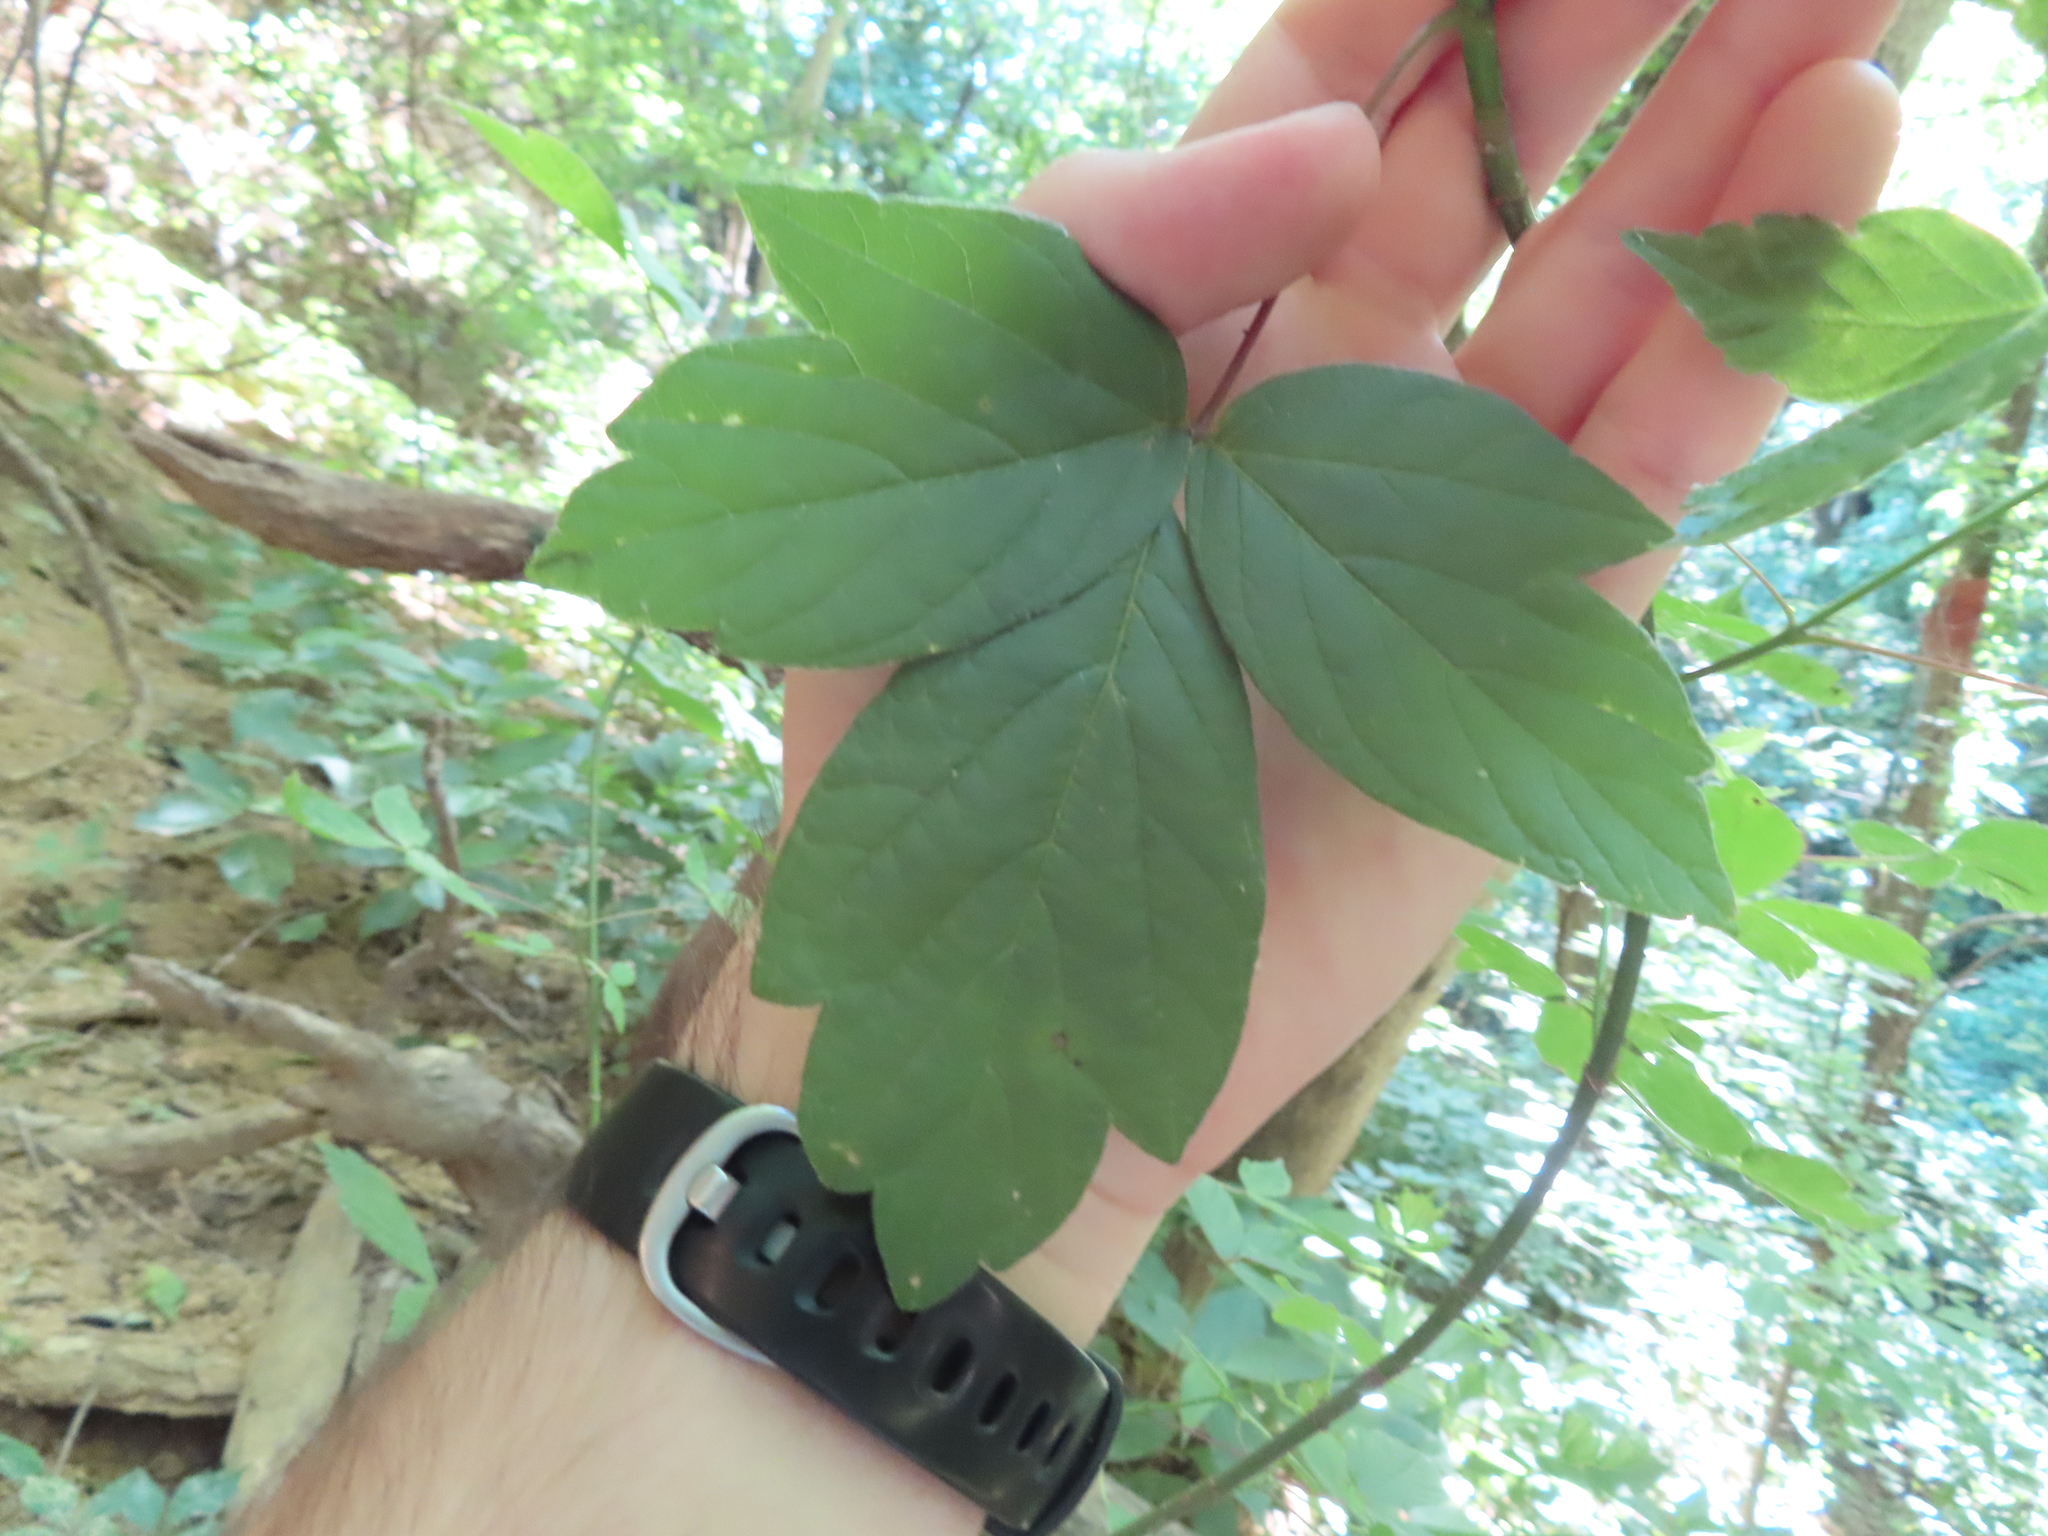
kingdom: Plantae
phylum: Tracheophyta
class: Magnoliopsida
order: Sapindales
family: Sapindaceae
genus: Acer
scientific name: Acer negundo
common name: Ashleaf maple
